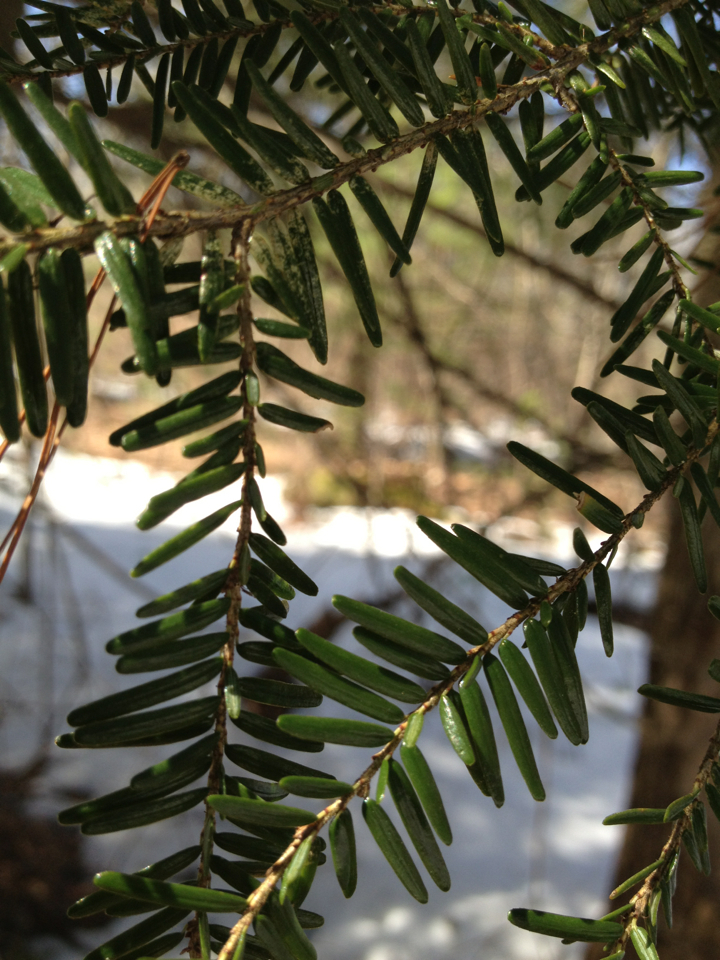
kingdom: Plantae
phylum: Tracheophyta
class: Pinopsida
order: Pinales
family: Pinaceae
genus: Tsuga
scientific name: Tsuga canadensis
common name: Eastern hemlock
